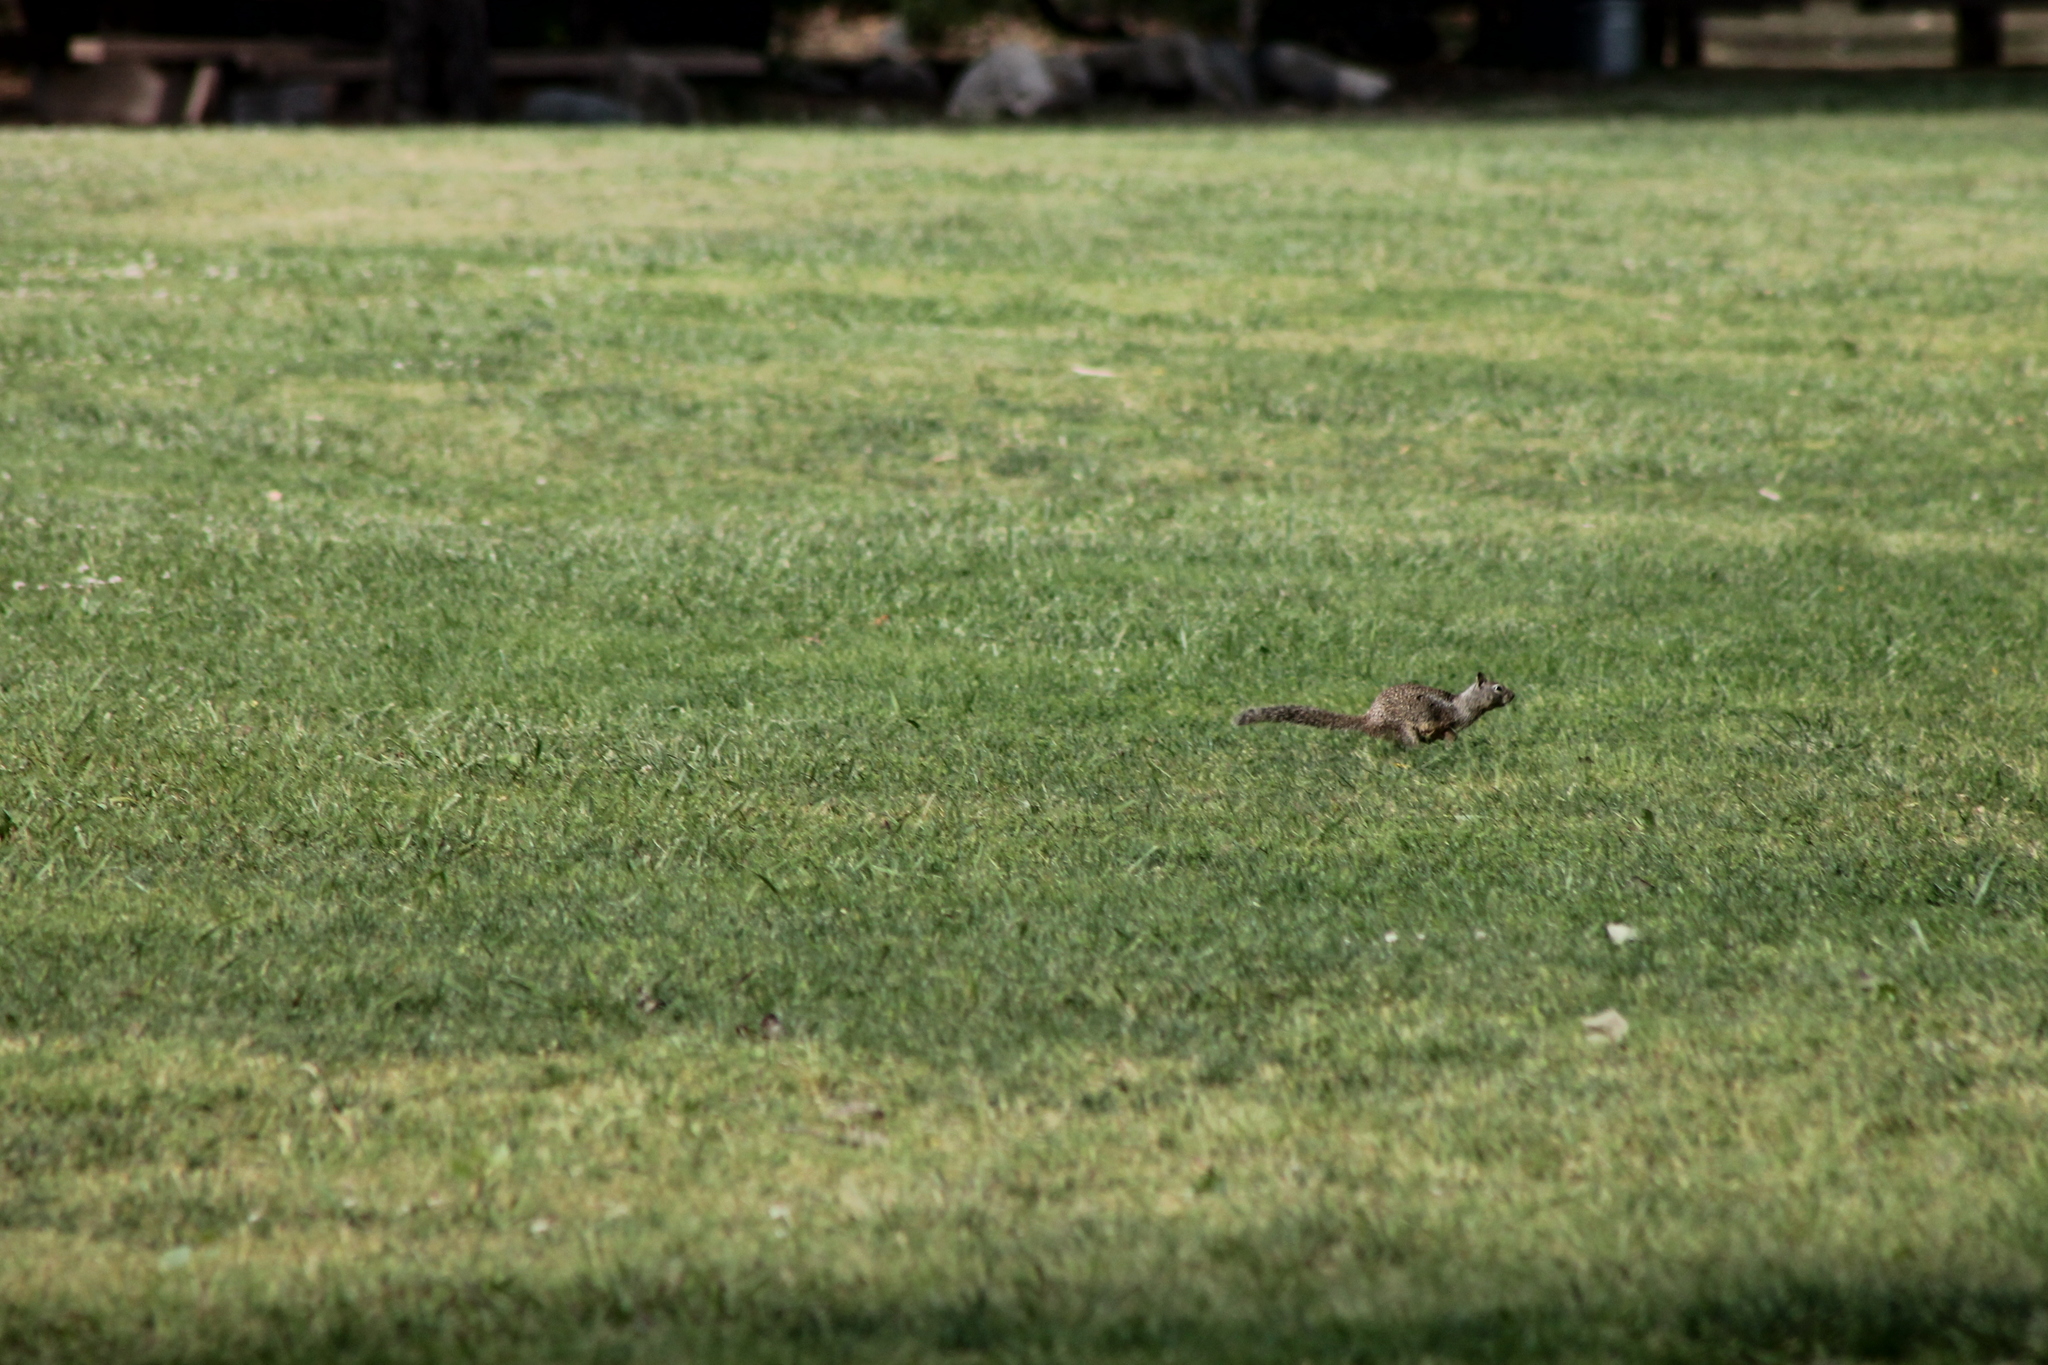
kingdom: Animalia
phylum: Chordata
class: Mammalia
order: Rodentia
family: Sciuridae
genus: Otospermophilus
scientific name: Otospermophilus beecheyi
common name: California ground squirrel
